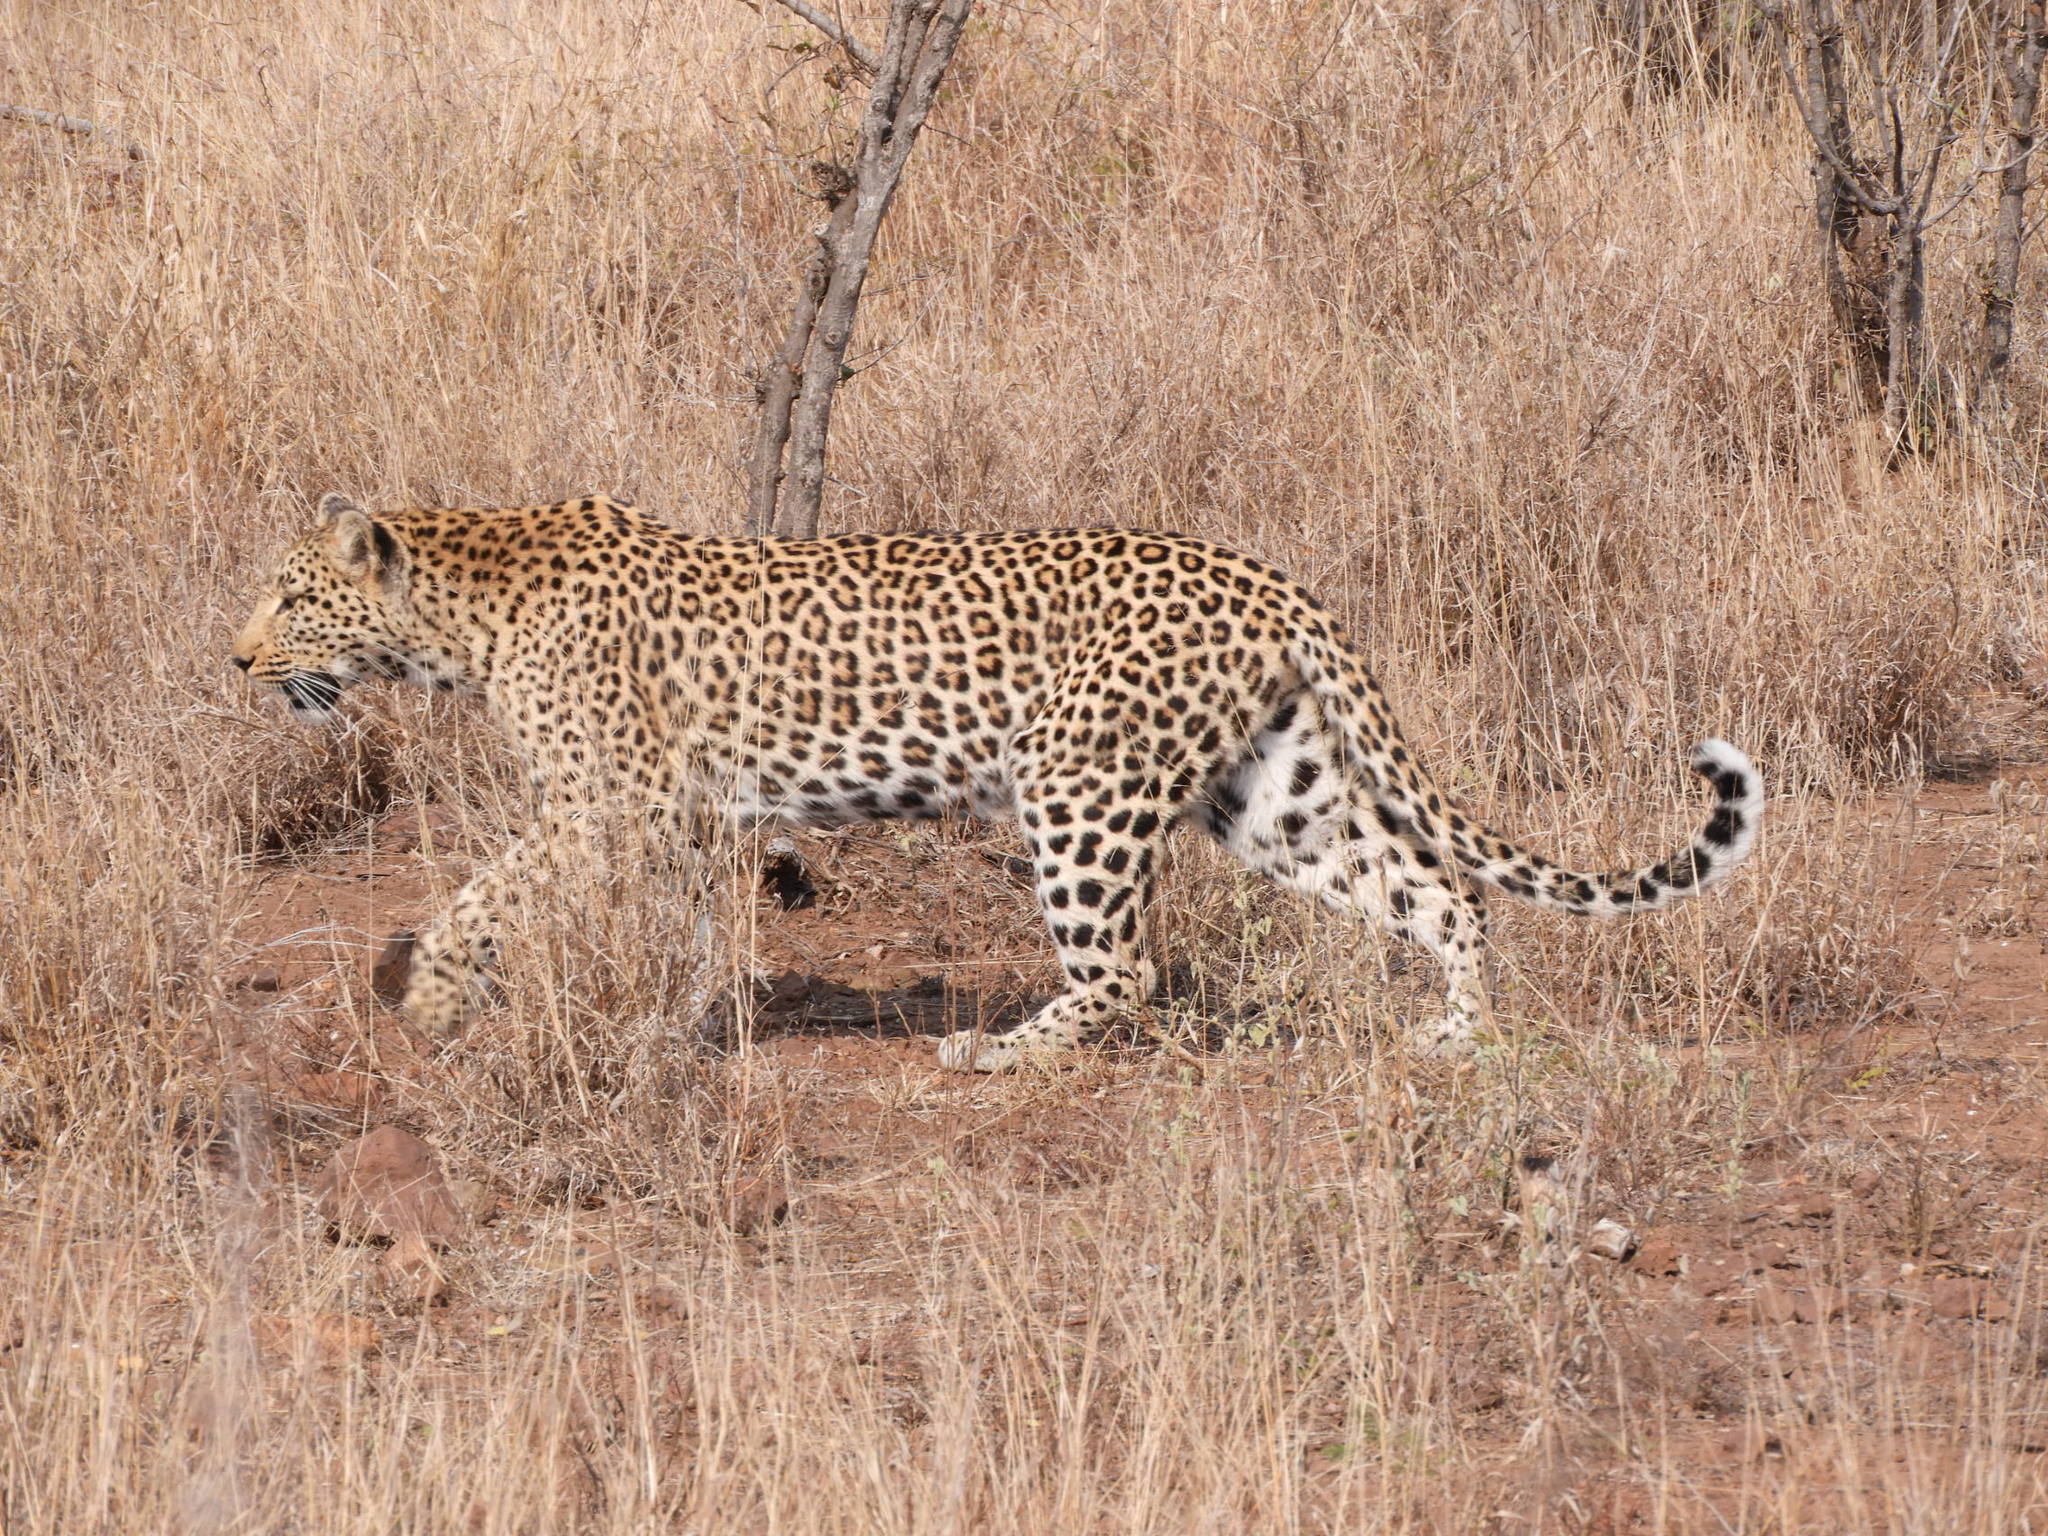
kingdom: Animalia
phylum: Chordata
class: Mammalia
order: Carnivora
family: Felidae
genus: Panthera
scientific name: Panthera pardus
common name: Leopard
